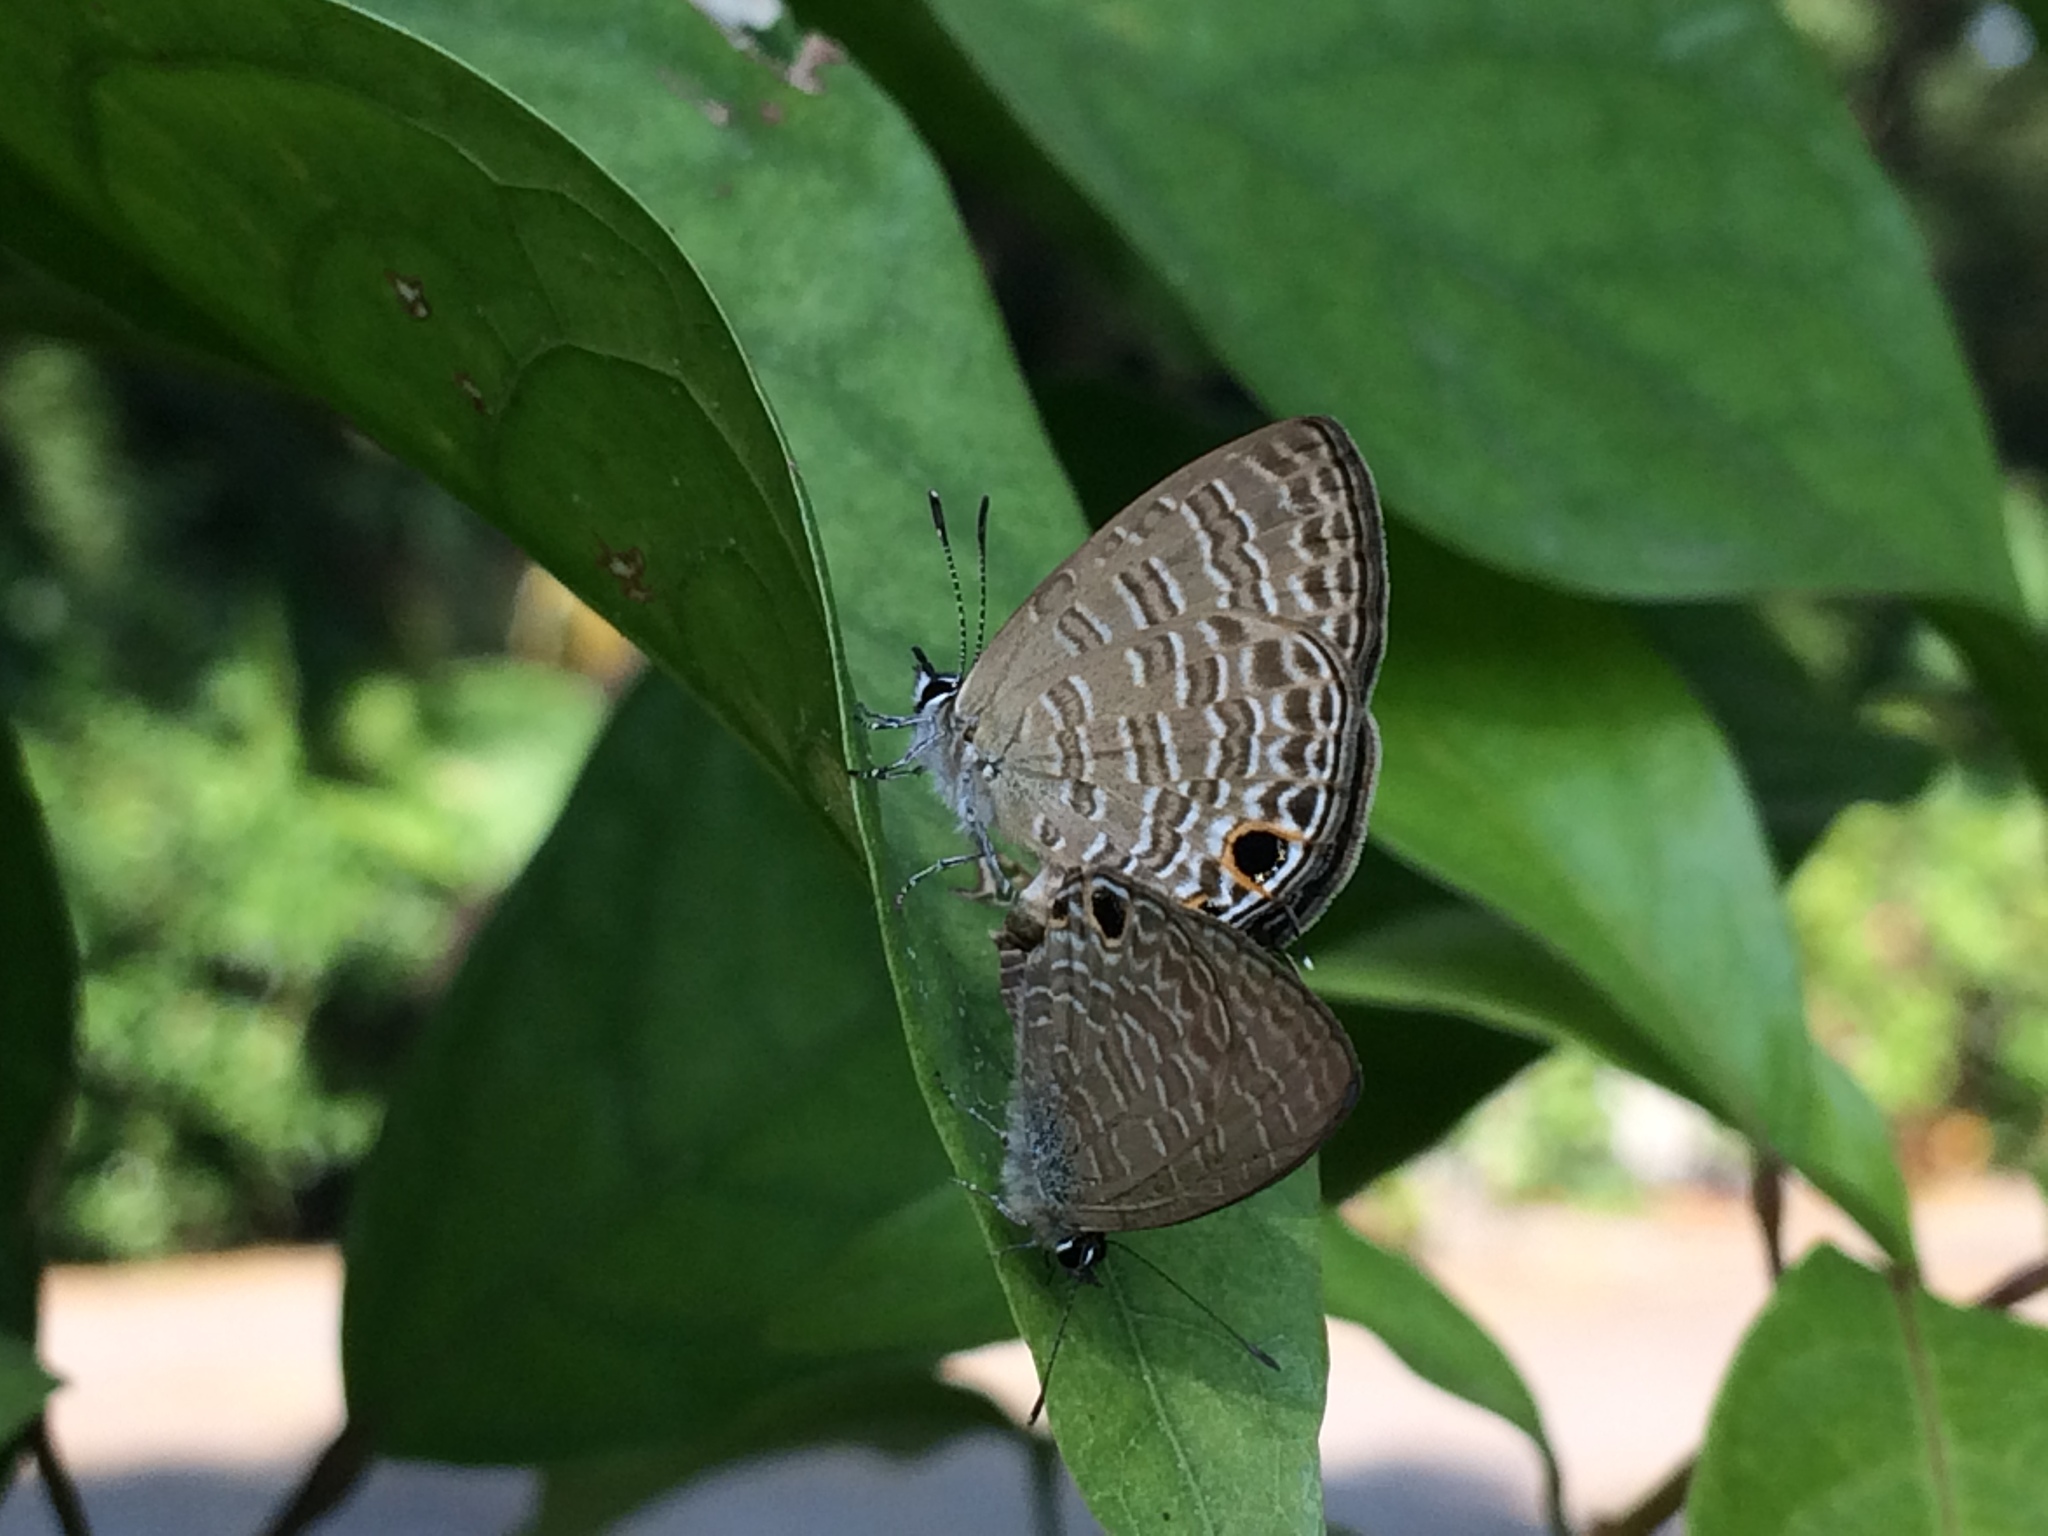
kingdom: Animalia
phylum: Arthropoda
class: Insecta
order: Lepidoptera
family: Lycaenidae
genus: Nacaduba
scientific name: Nacaduba berenice
